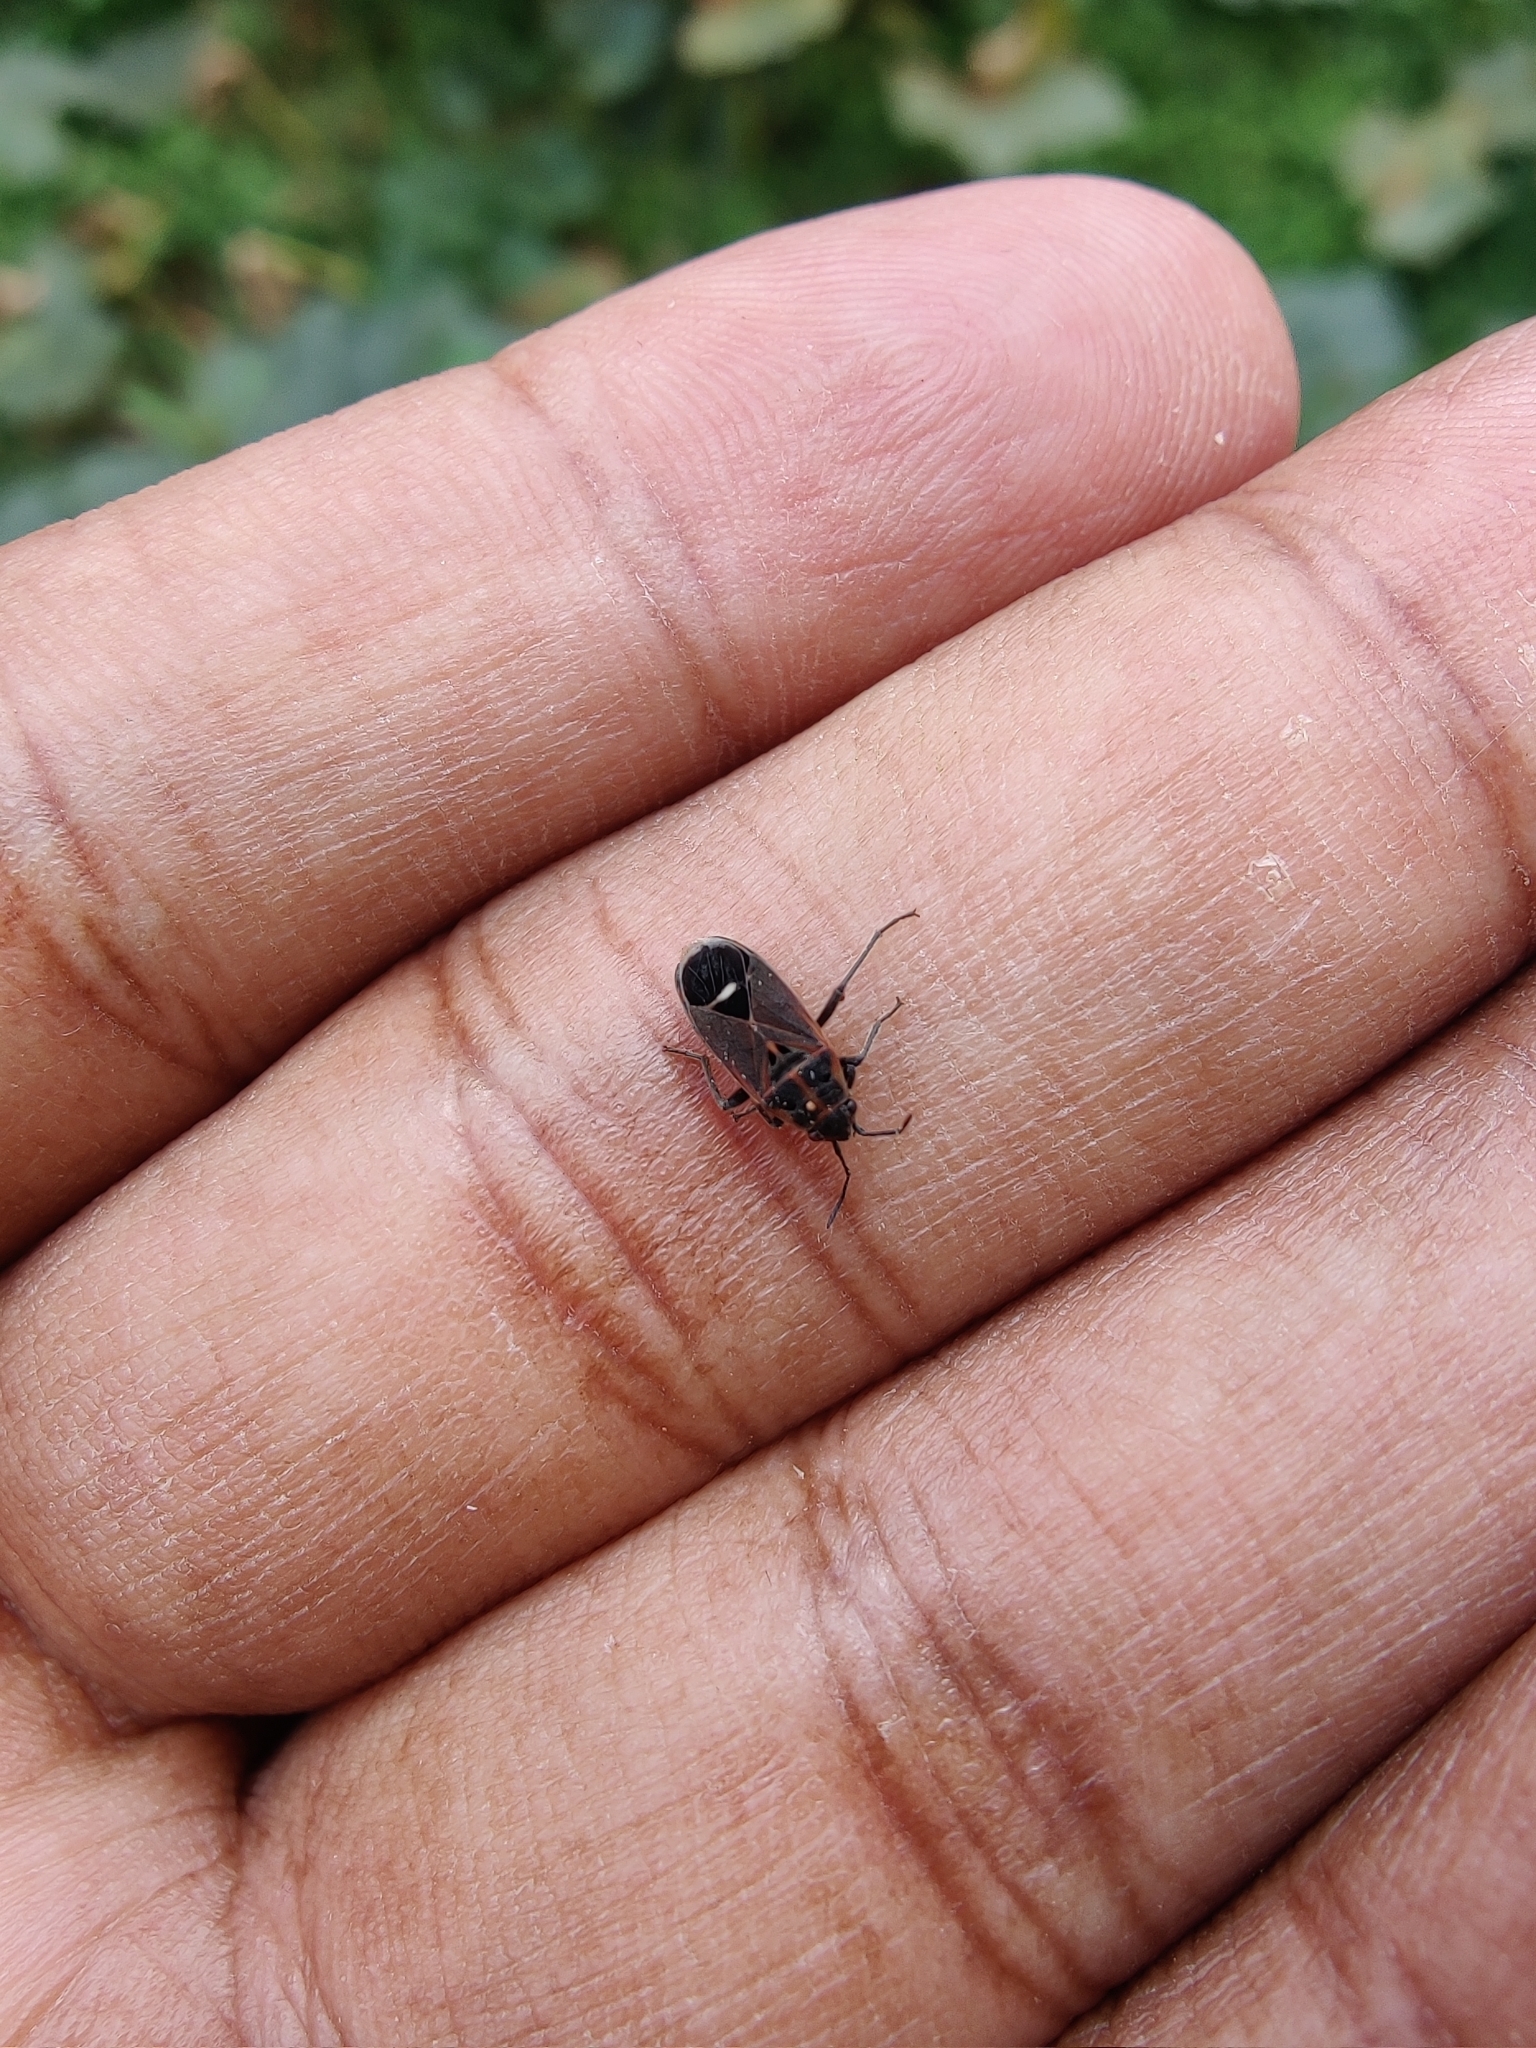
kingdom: Animalia
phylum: Arthropoda
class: Insecta
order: Hemiptera
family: Lygaeidae
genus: Aspilocoryphus
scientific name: Aspilocoryphus mendicus
